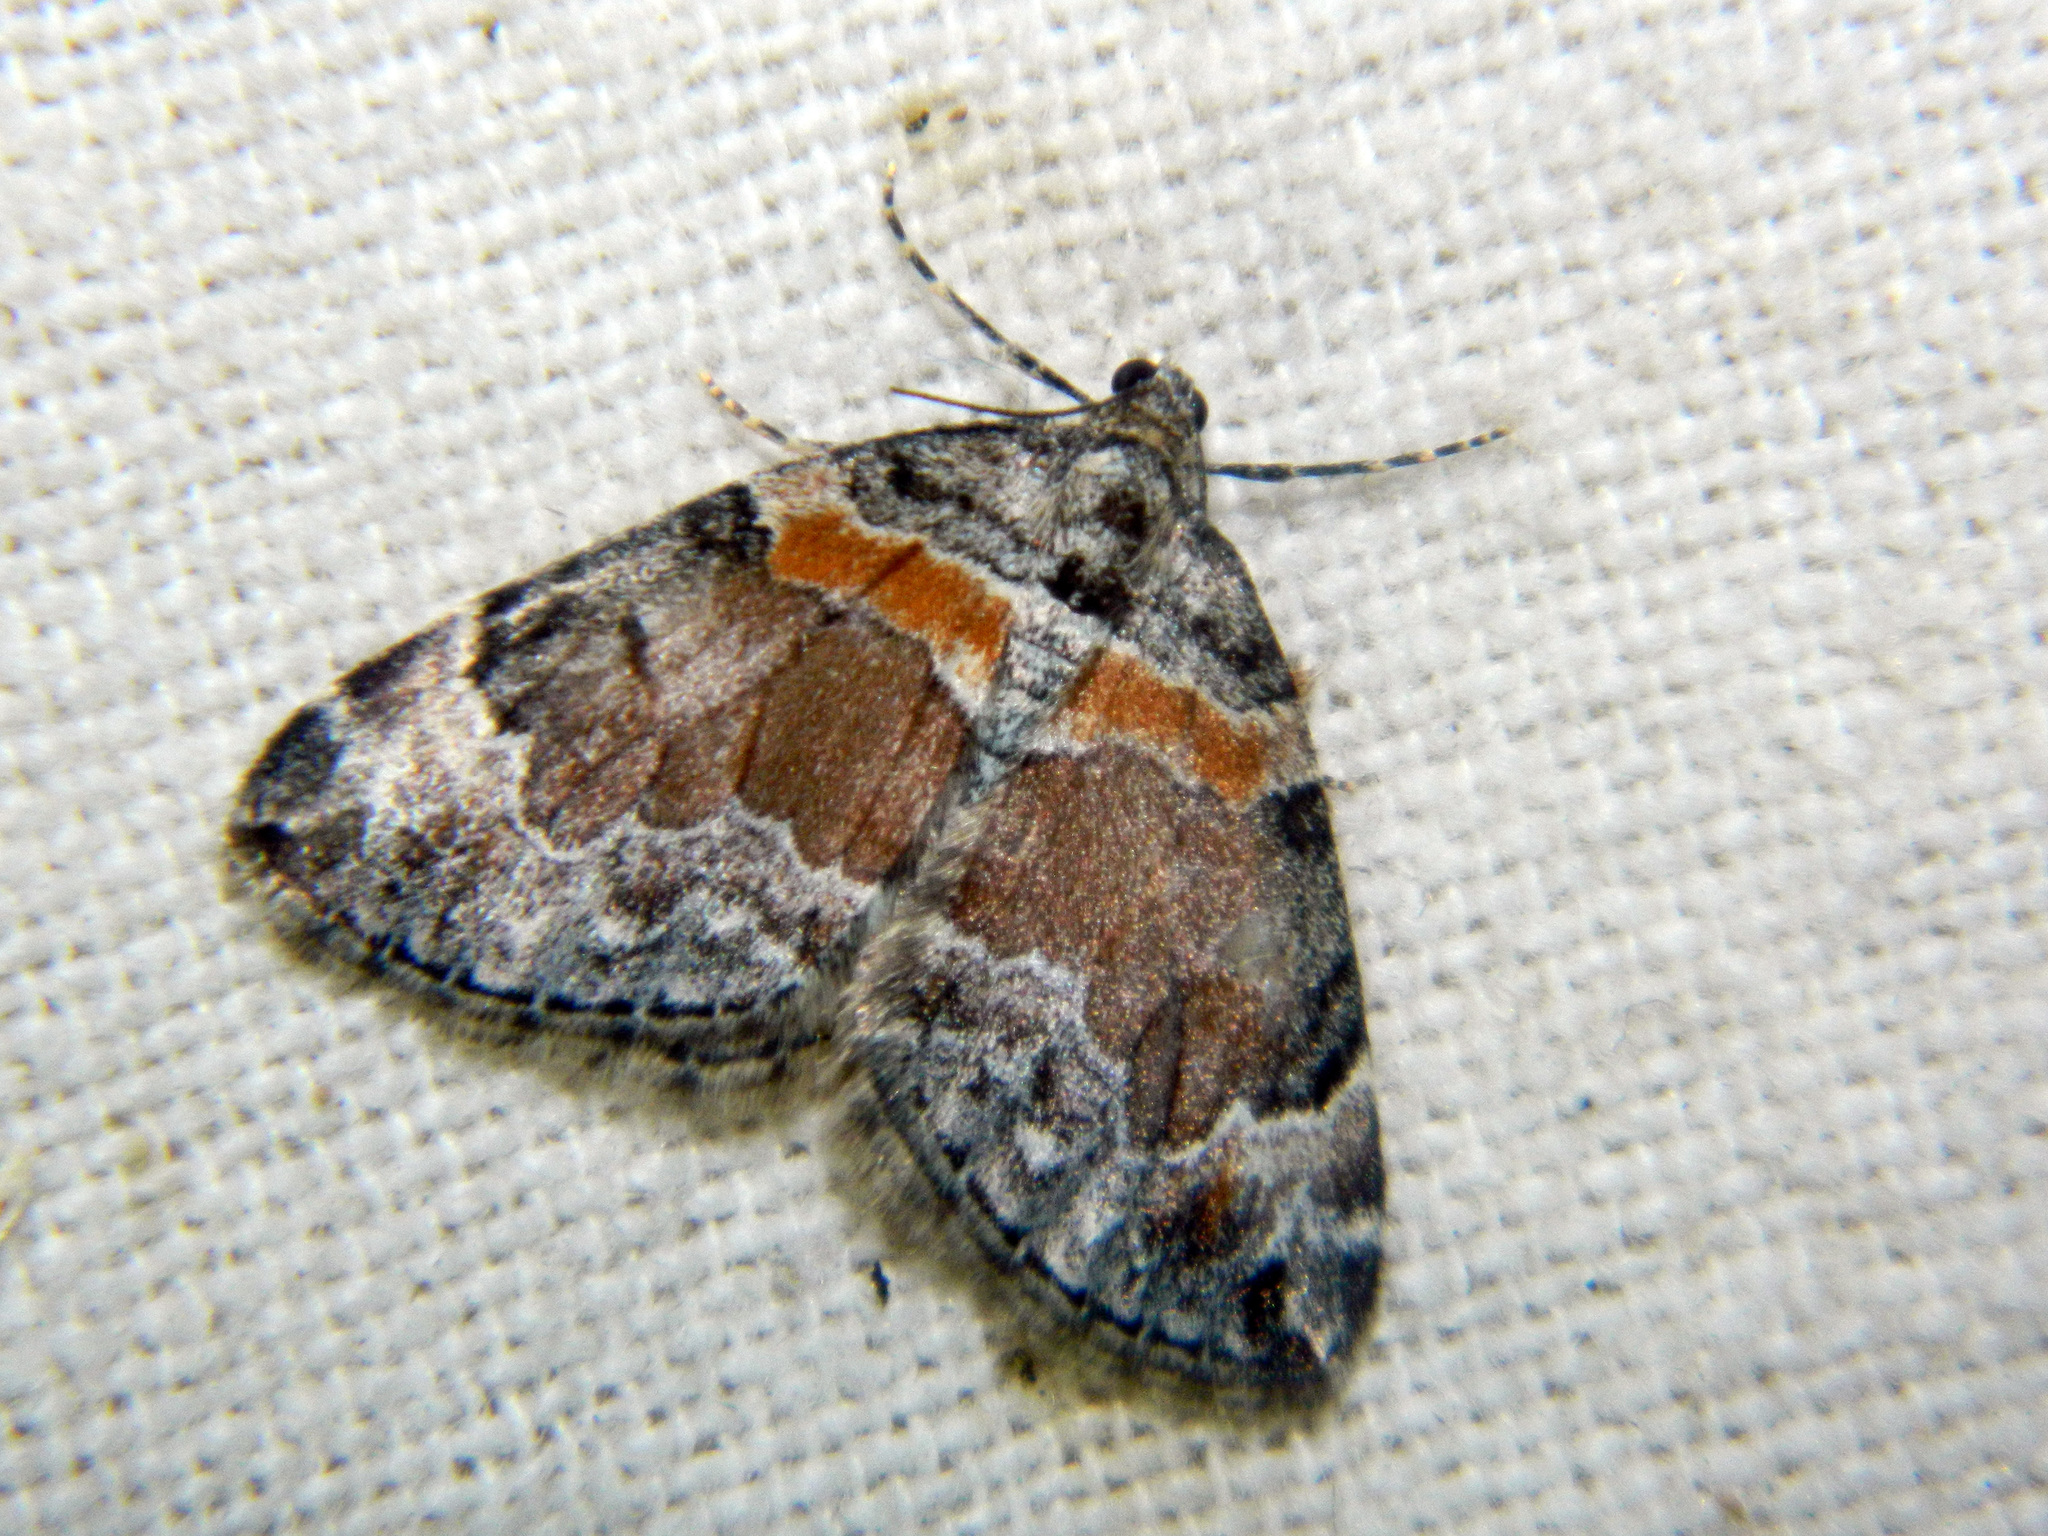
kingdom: Animalia
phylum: Arthropoda
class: Insecta
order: Lepidoptera
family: Geometridae
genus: Dysstroma
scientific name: Dysstroma hersiliata
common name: Orange-barred carpet
